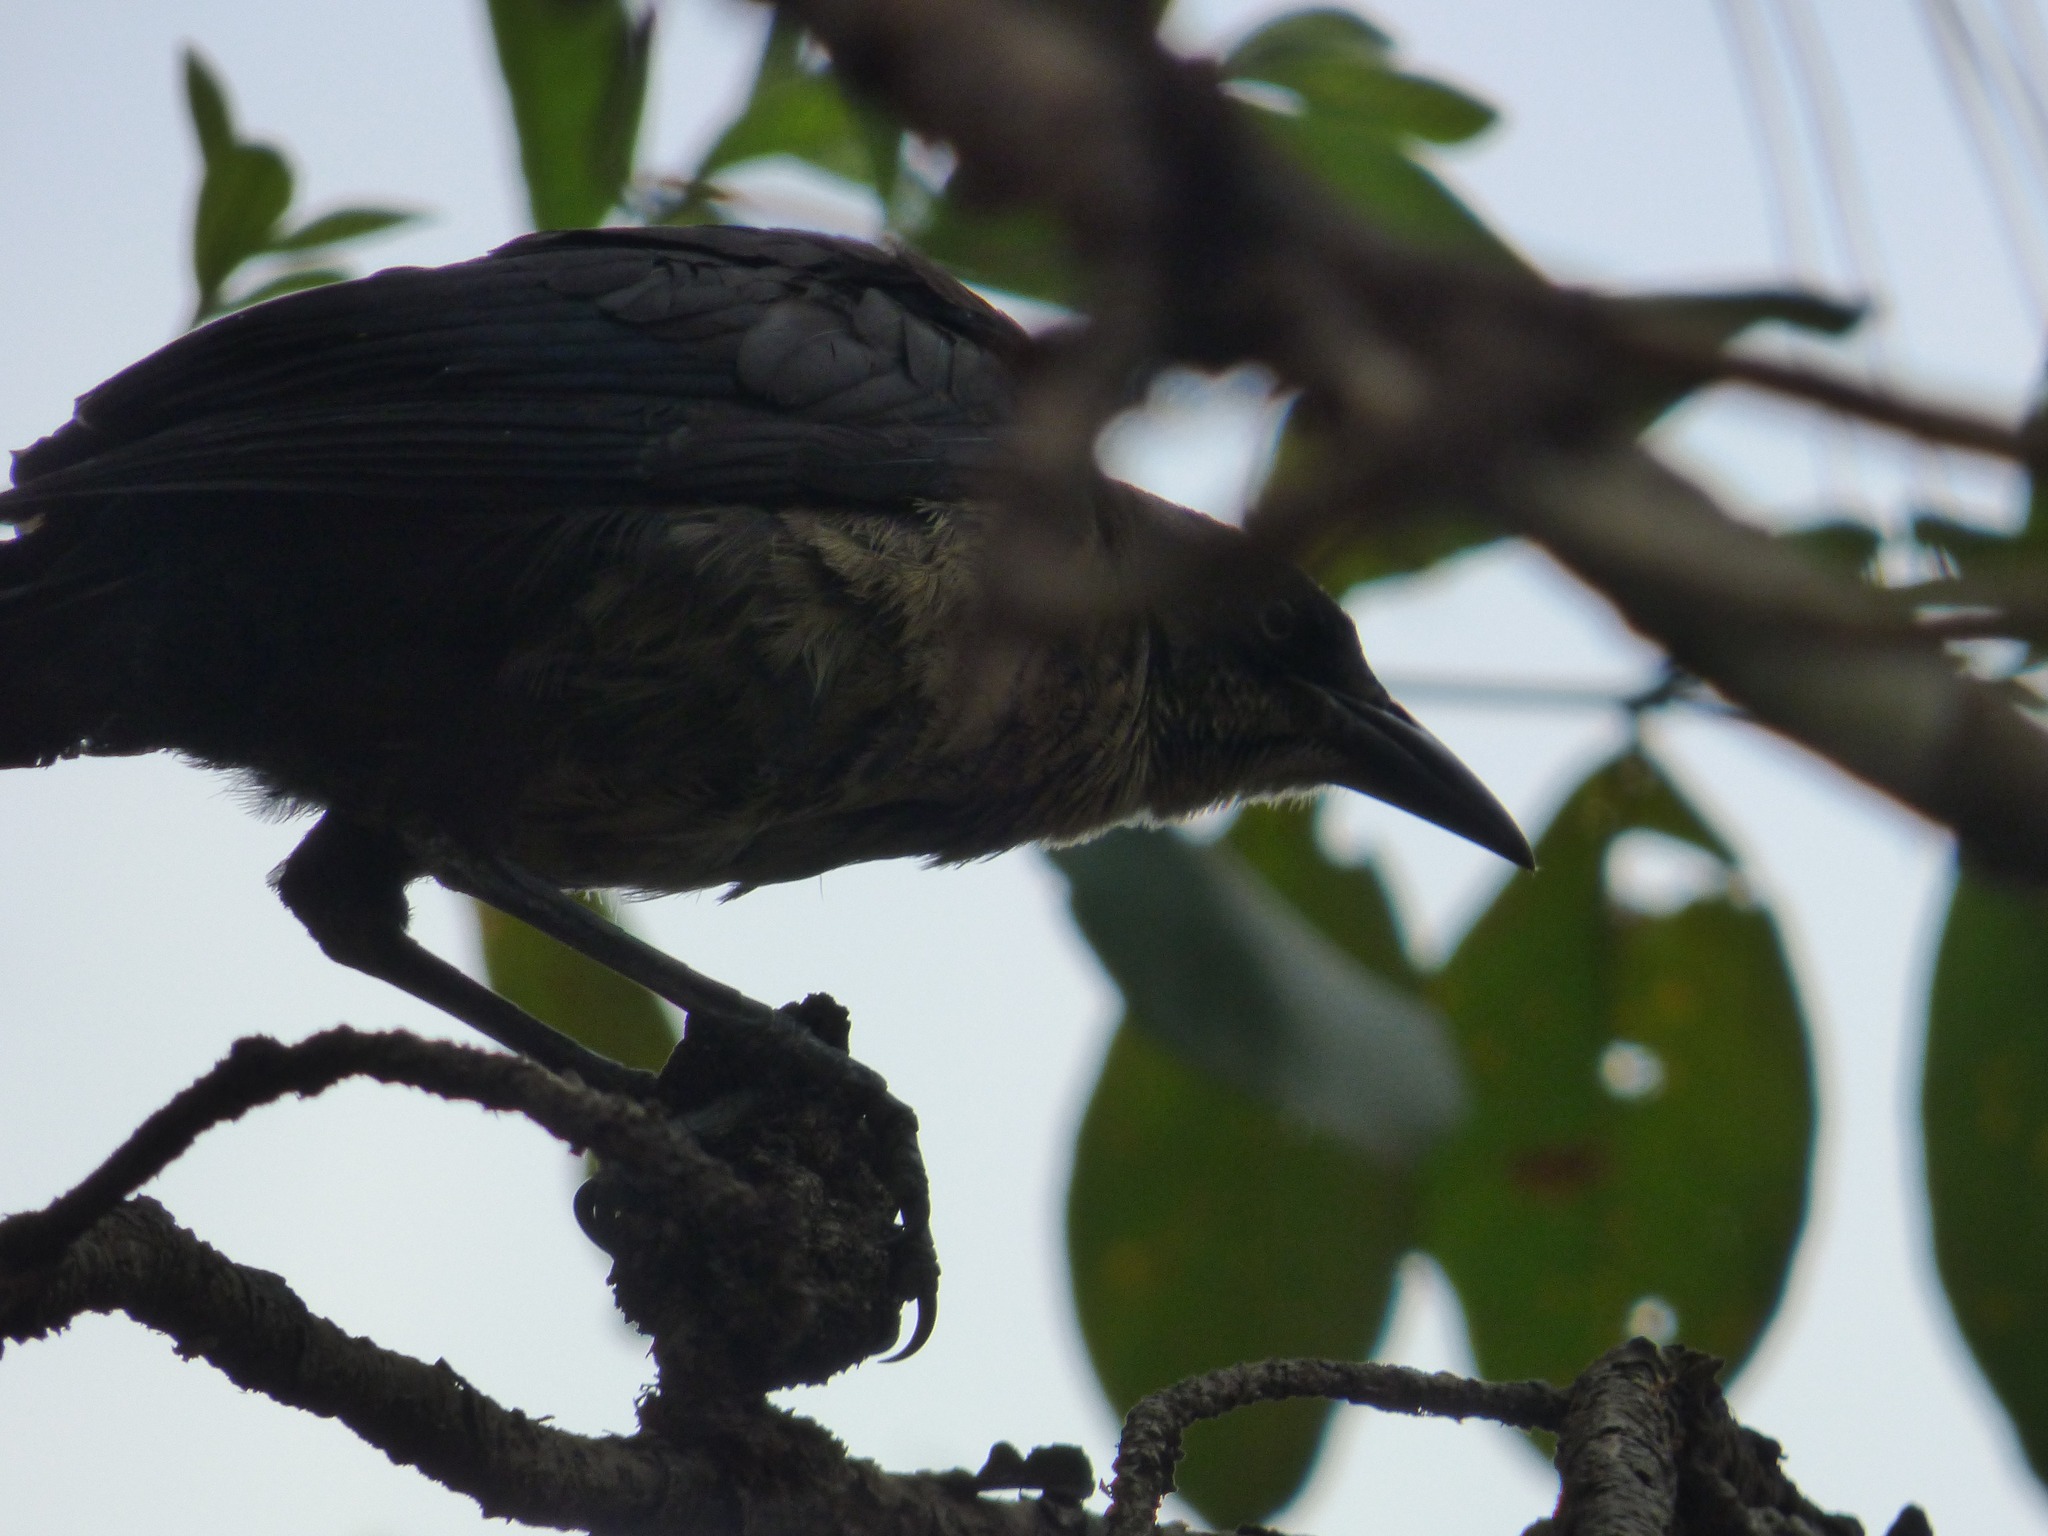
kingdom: Animalia
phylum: Chordata
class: Aves
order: Passeriformes
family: Icteridae
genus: Quiscalus
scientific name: Quiscalus mexicanus
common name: Great-tailed grackle
